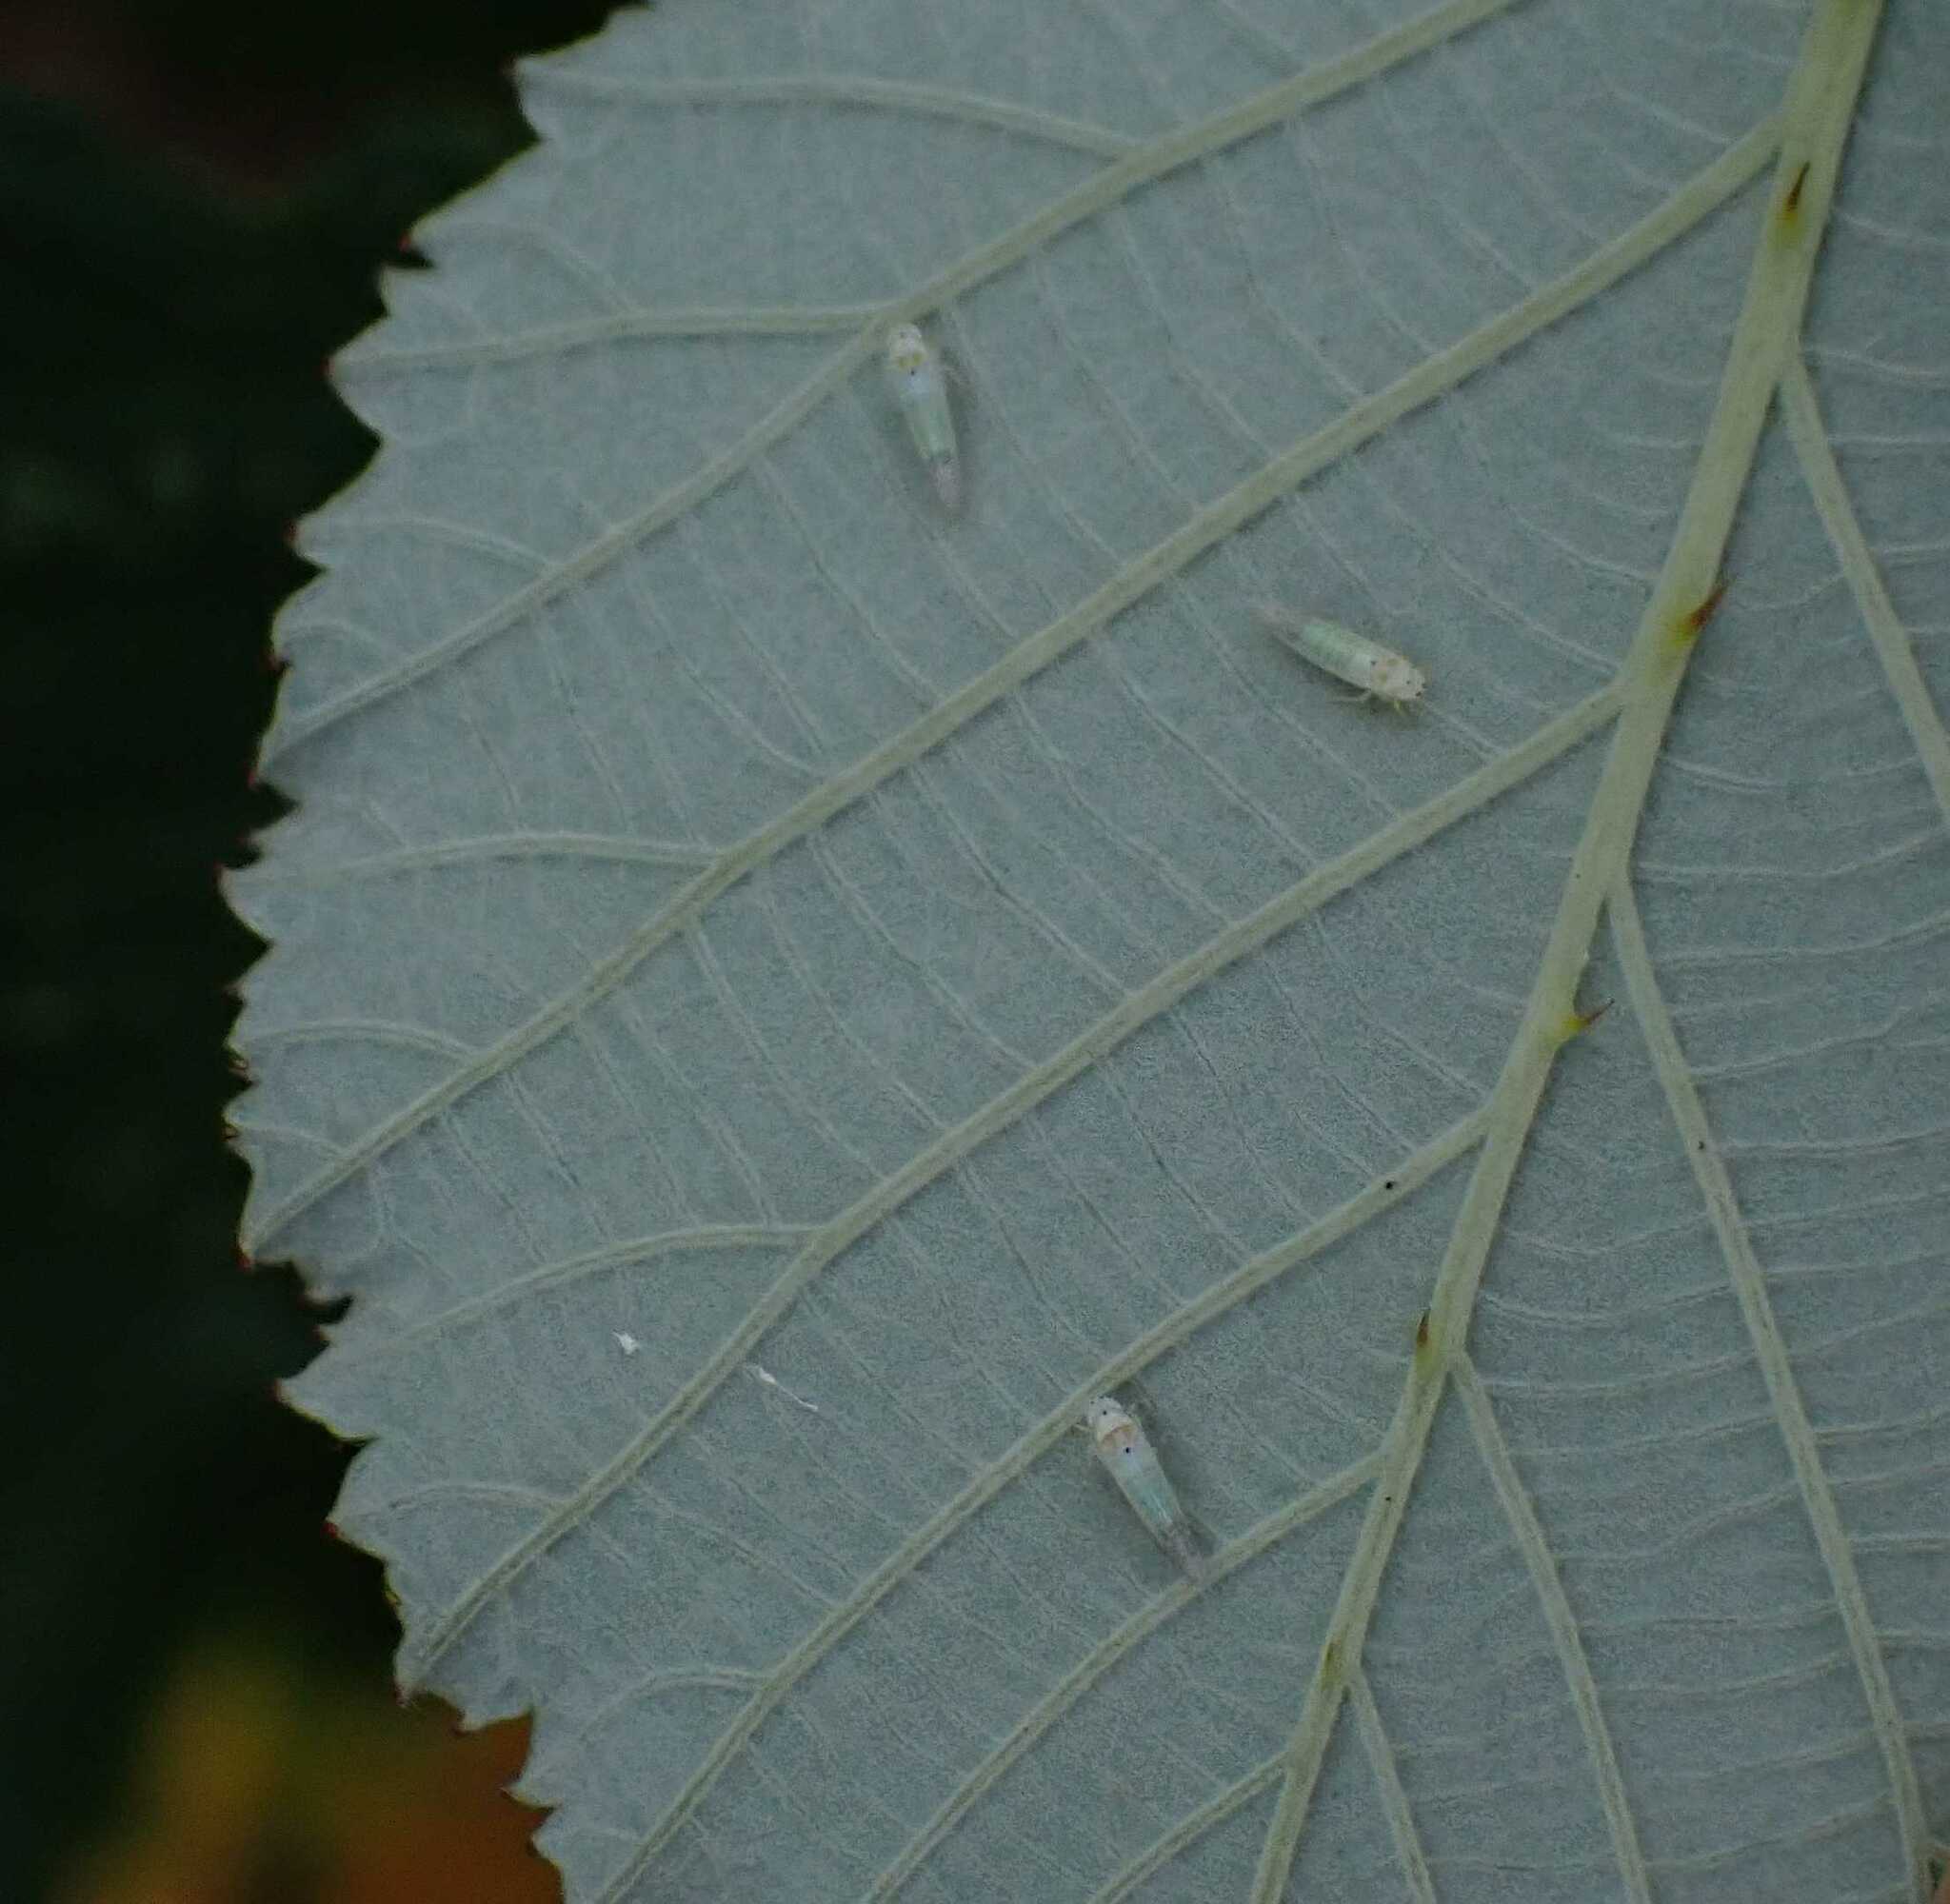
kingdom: Animalia
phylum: Arthropoda
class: Insecta
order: Hemiptera
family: Cicadellidae
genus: Ribautiana
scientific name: Ribautiana debilis
